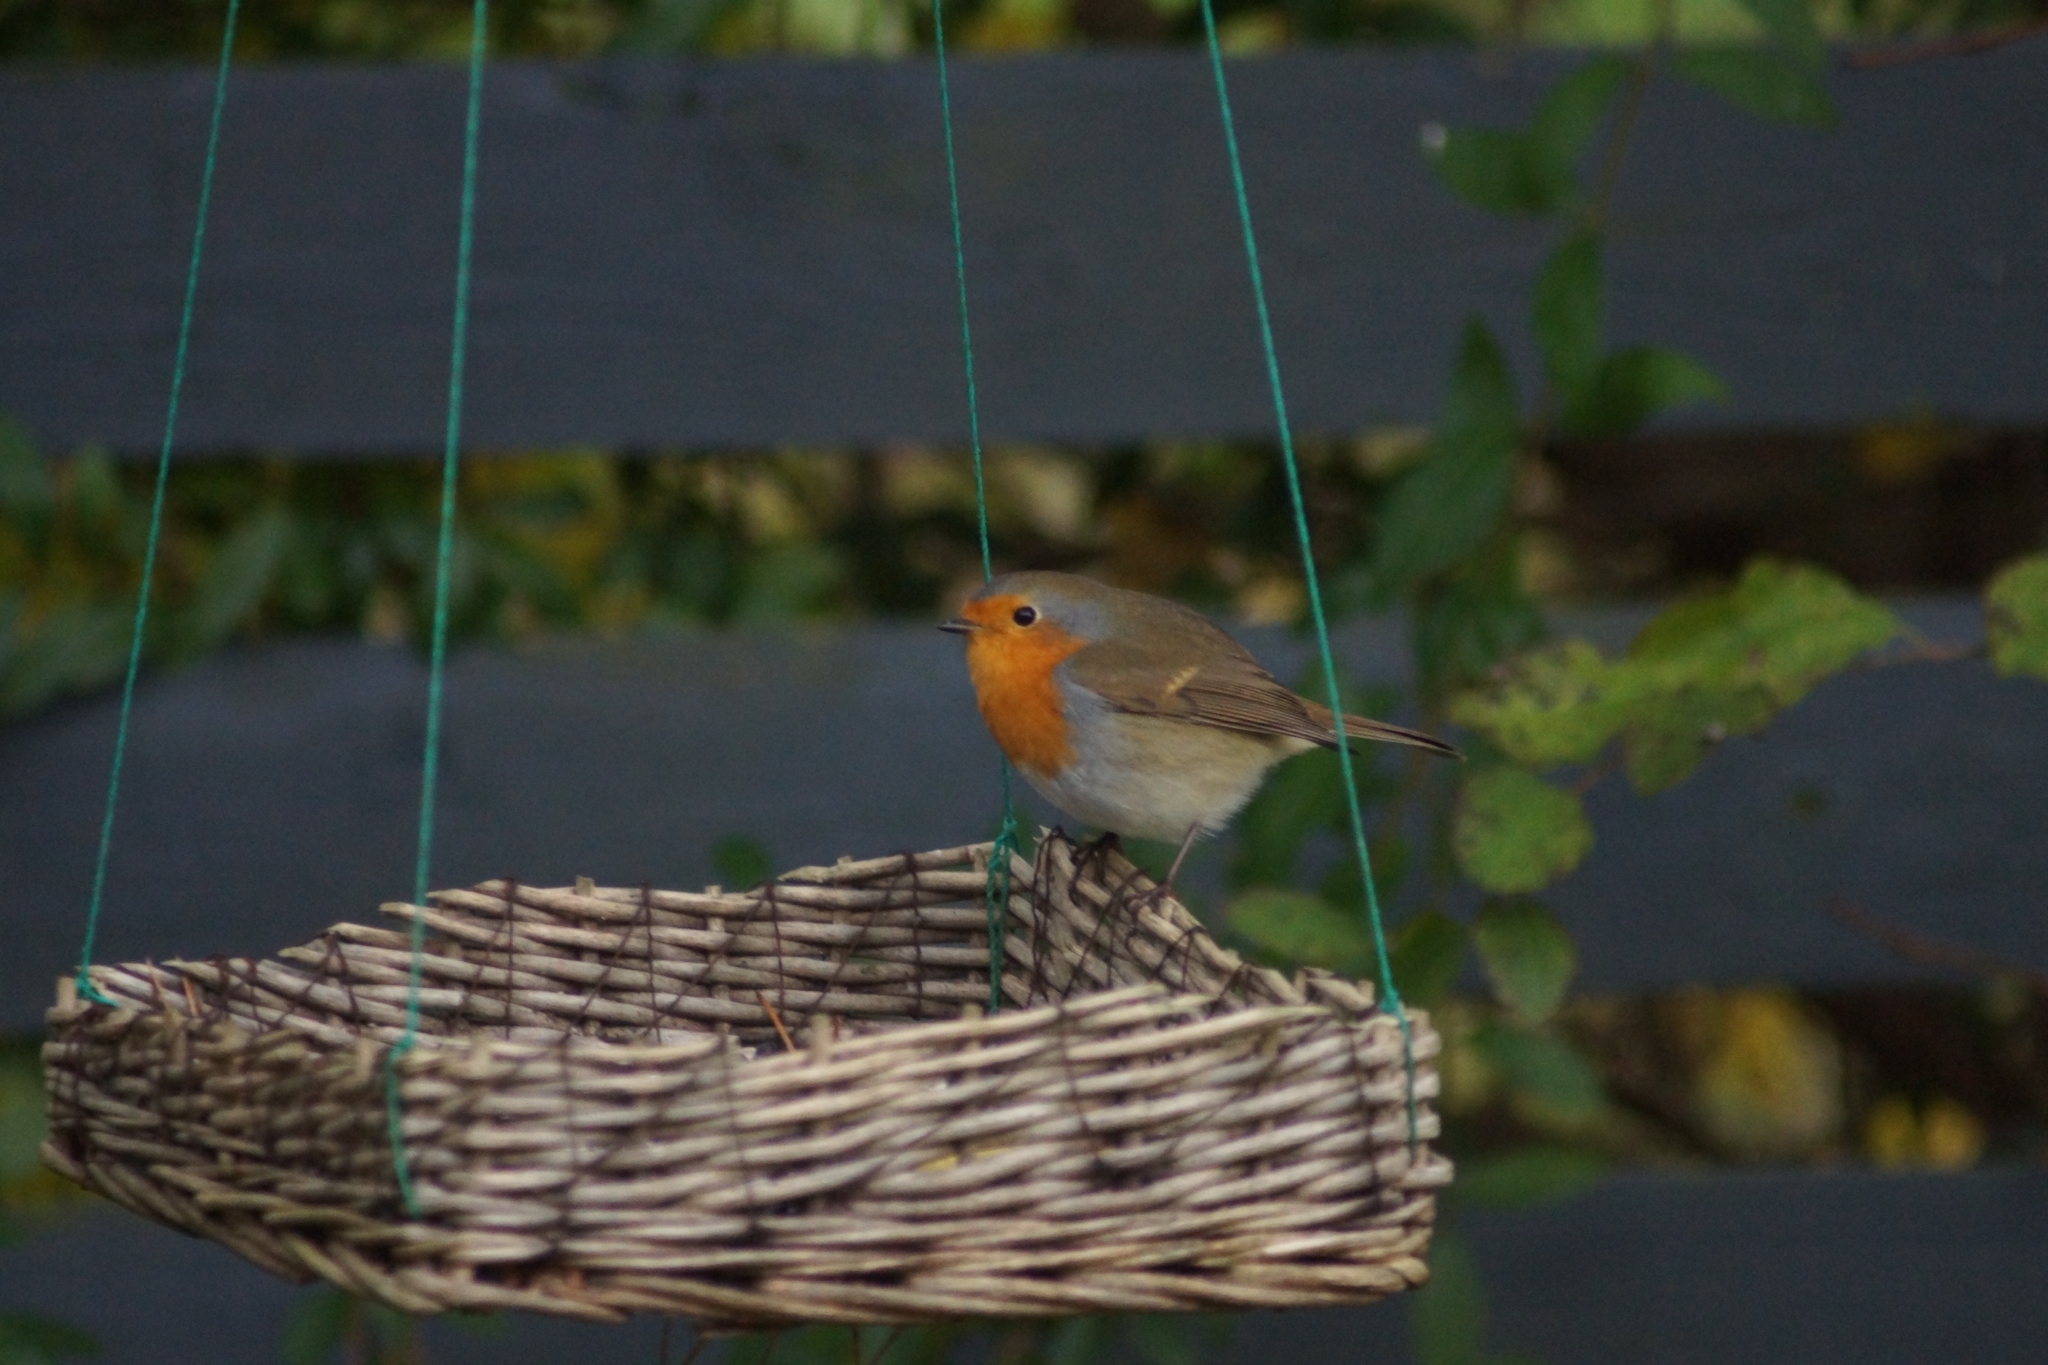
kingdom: Animalia
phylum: Chordata
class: Aves
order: Passeriformes
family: Muscicapidae
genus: Erithacus
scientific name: Erithacus rubecula
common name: European robin
